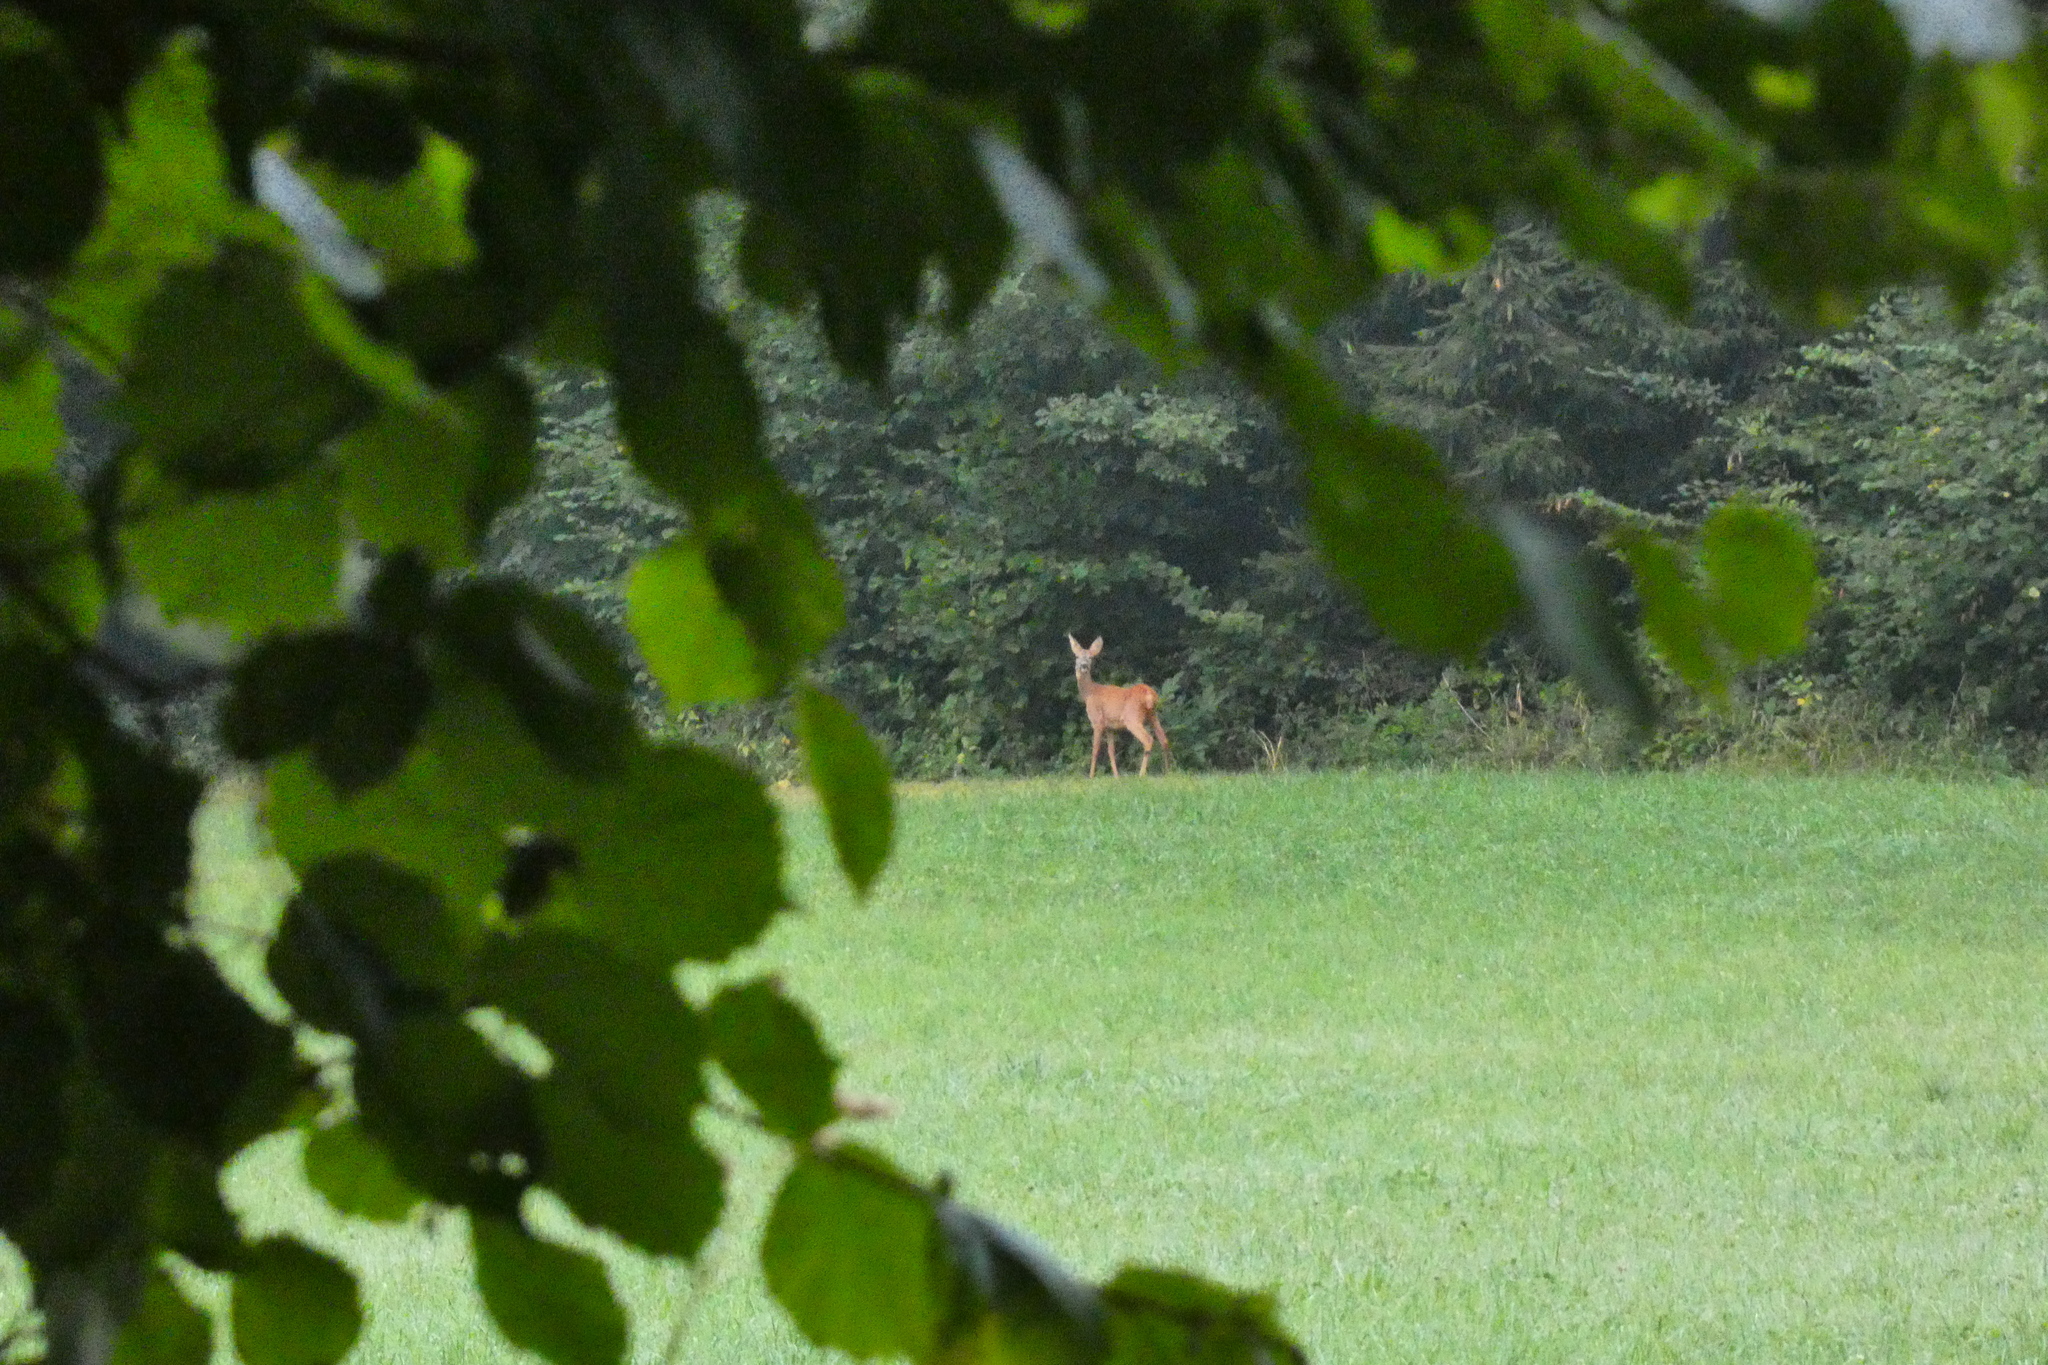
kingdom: Animalia
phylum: Chordata
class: Mammalia
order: Artiodactyla
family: Cervidae
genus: Capreolus
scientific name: Capreolus capreolus
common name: Western roe deer
